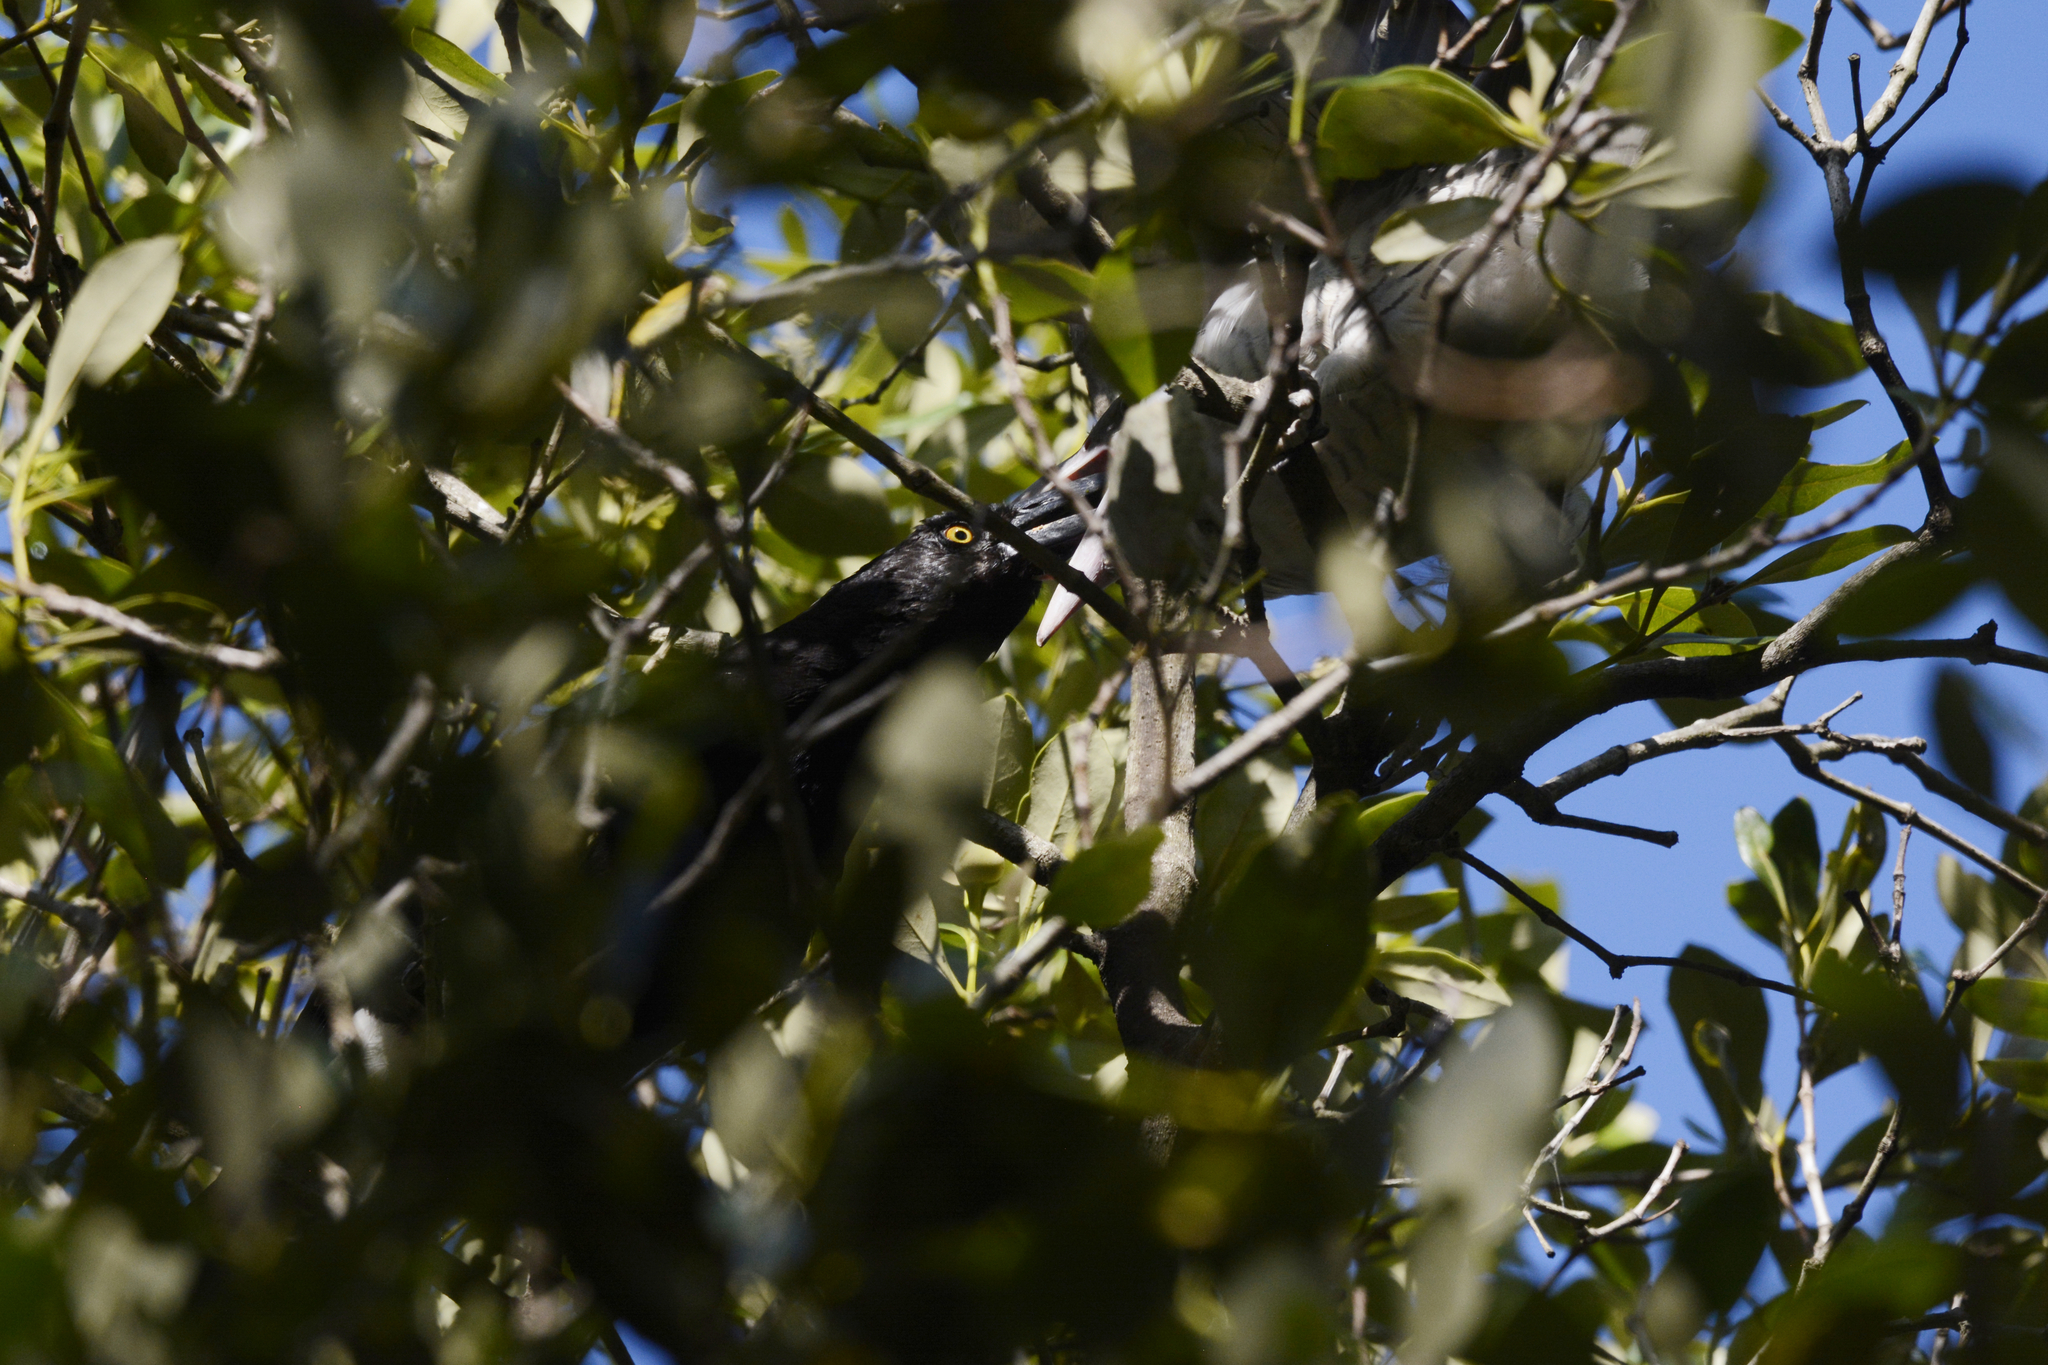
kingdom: Animalia
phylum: Chordata
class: Aves
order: Passeriformes
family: Cracticidae
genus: Strepera
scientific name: Strepera graculina
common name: Pied currawong
